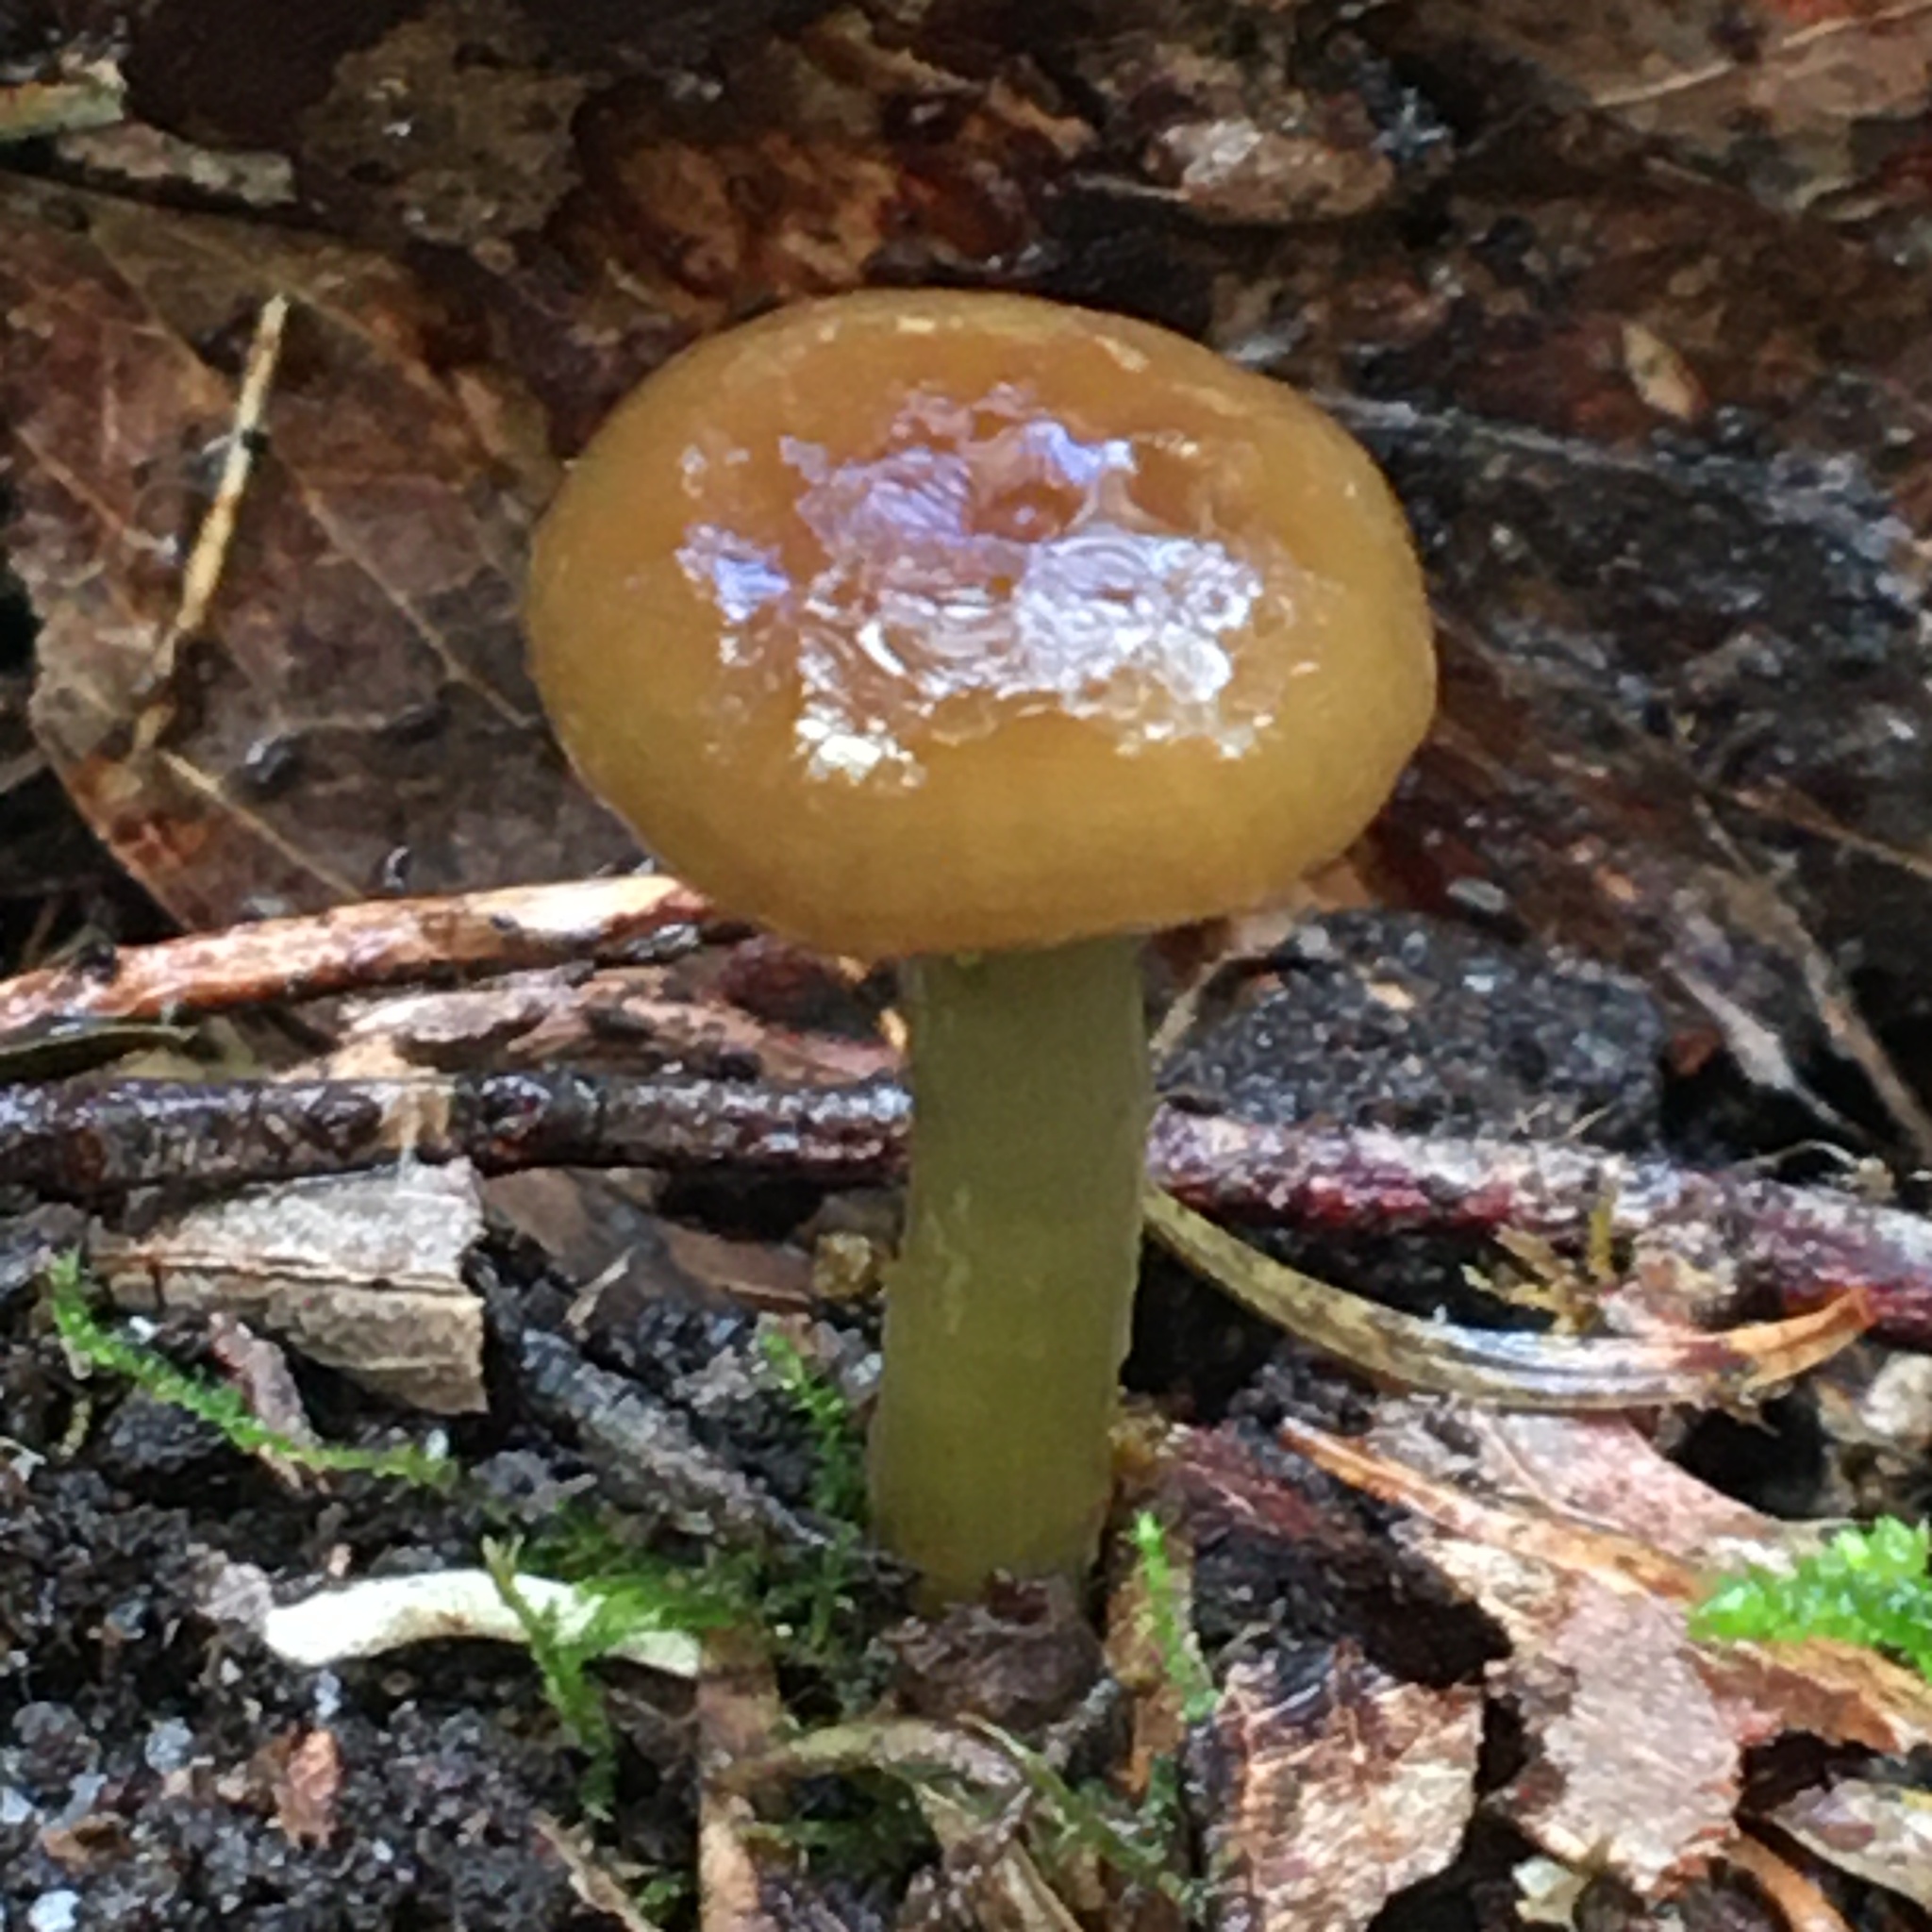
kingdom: Fungi
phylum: Basidiomycota
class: Agaricomycetes
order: Agaricales
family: Hygrophoraceae
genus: Gliophorus
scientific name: Gliophorus graminicolor
